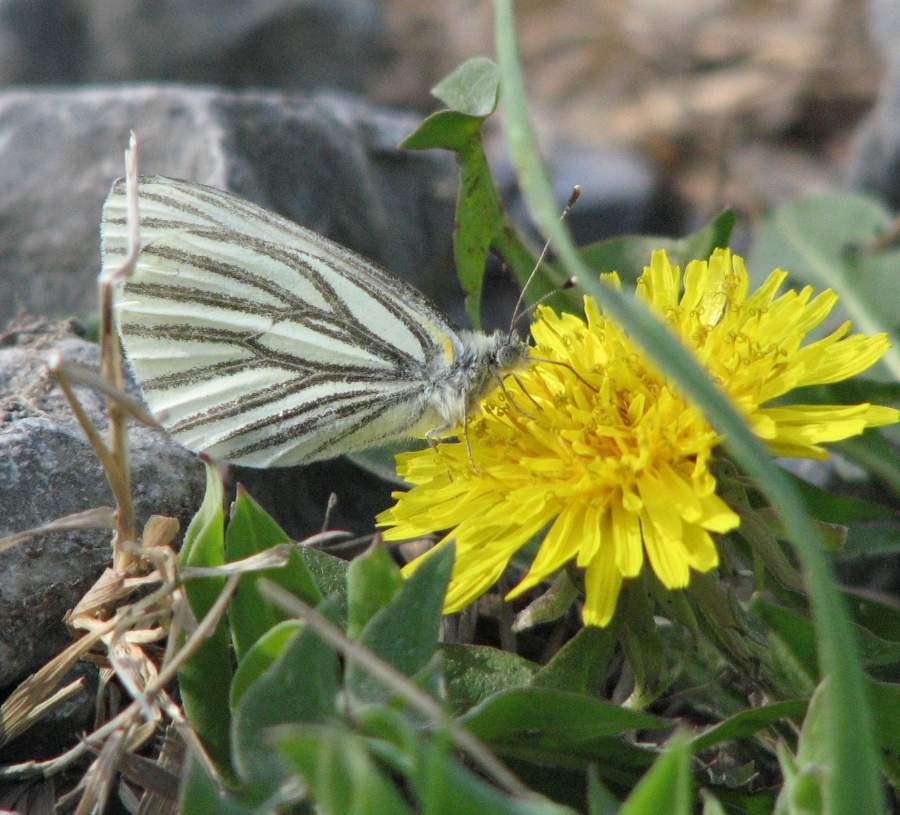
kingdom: Animalia
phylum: Arthropoda
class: Insecta
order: Lepidoptera
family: Pieridae
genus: Pieris
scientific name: Pieris oleracea
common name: Mustard white
